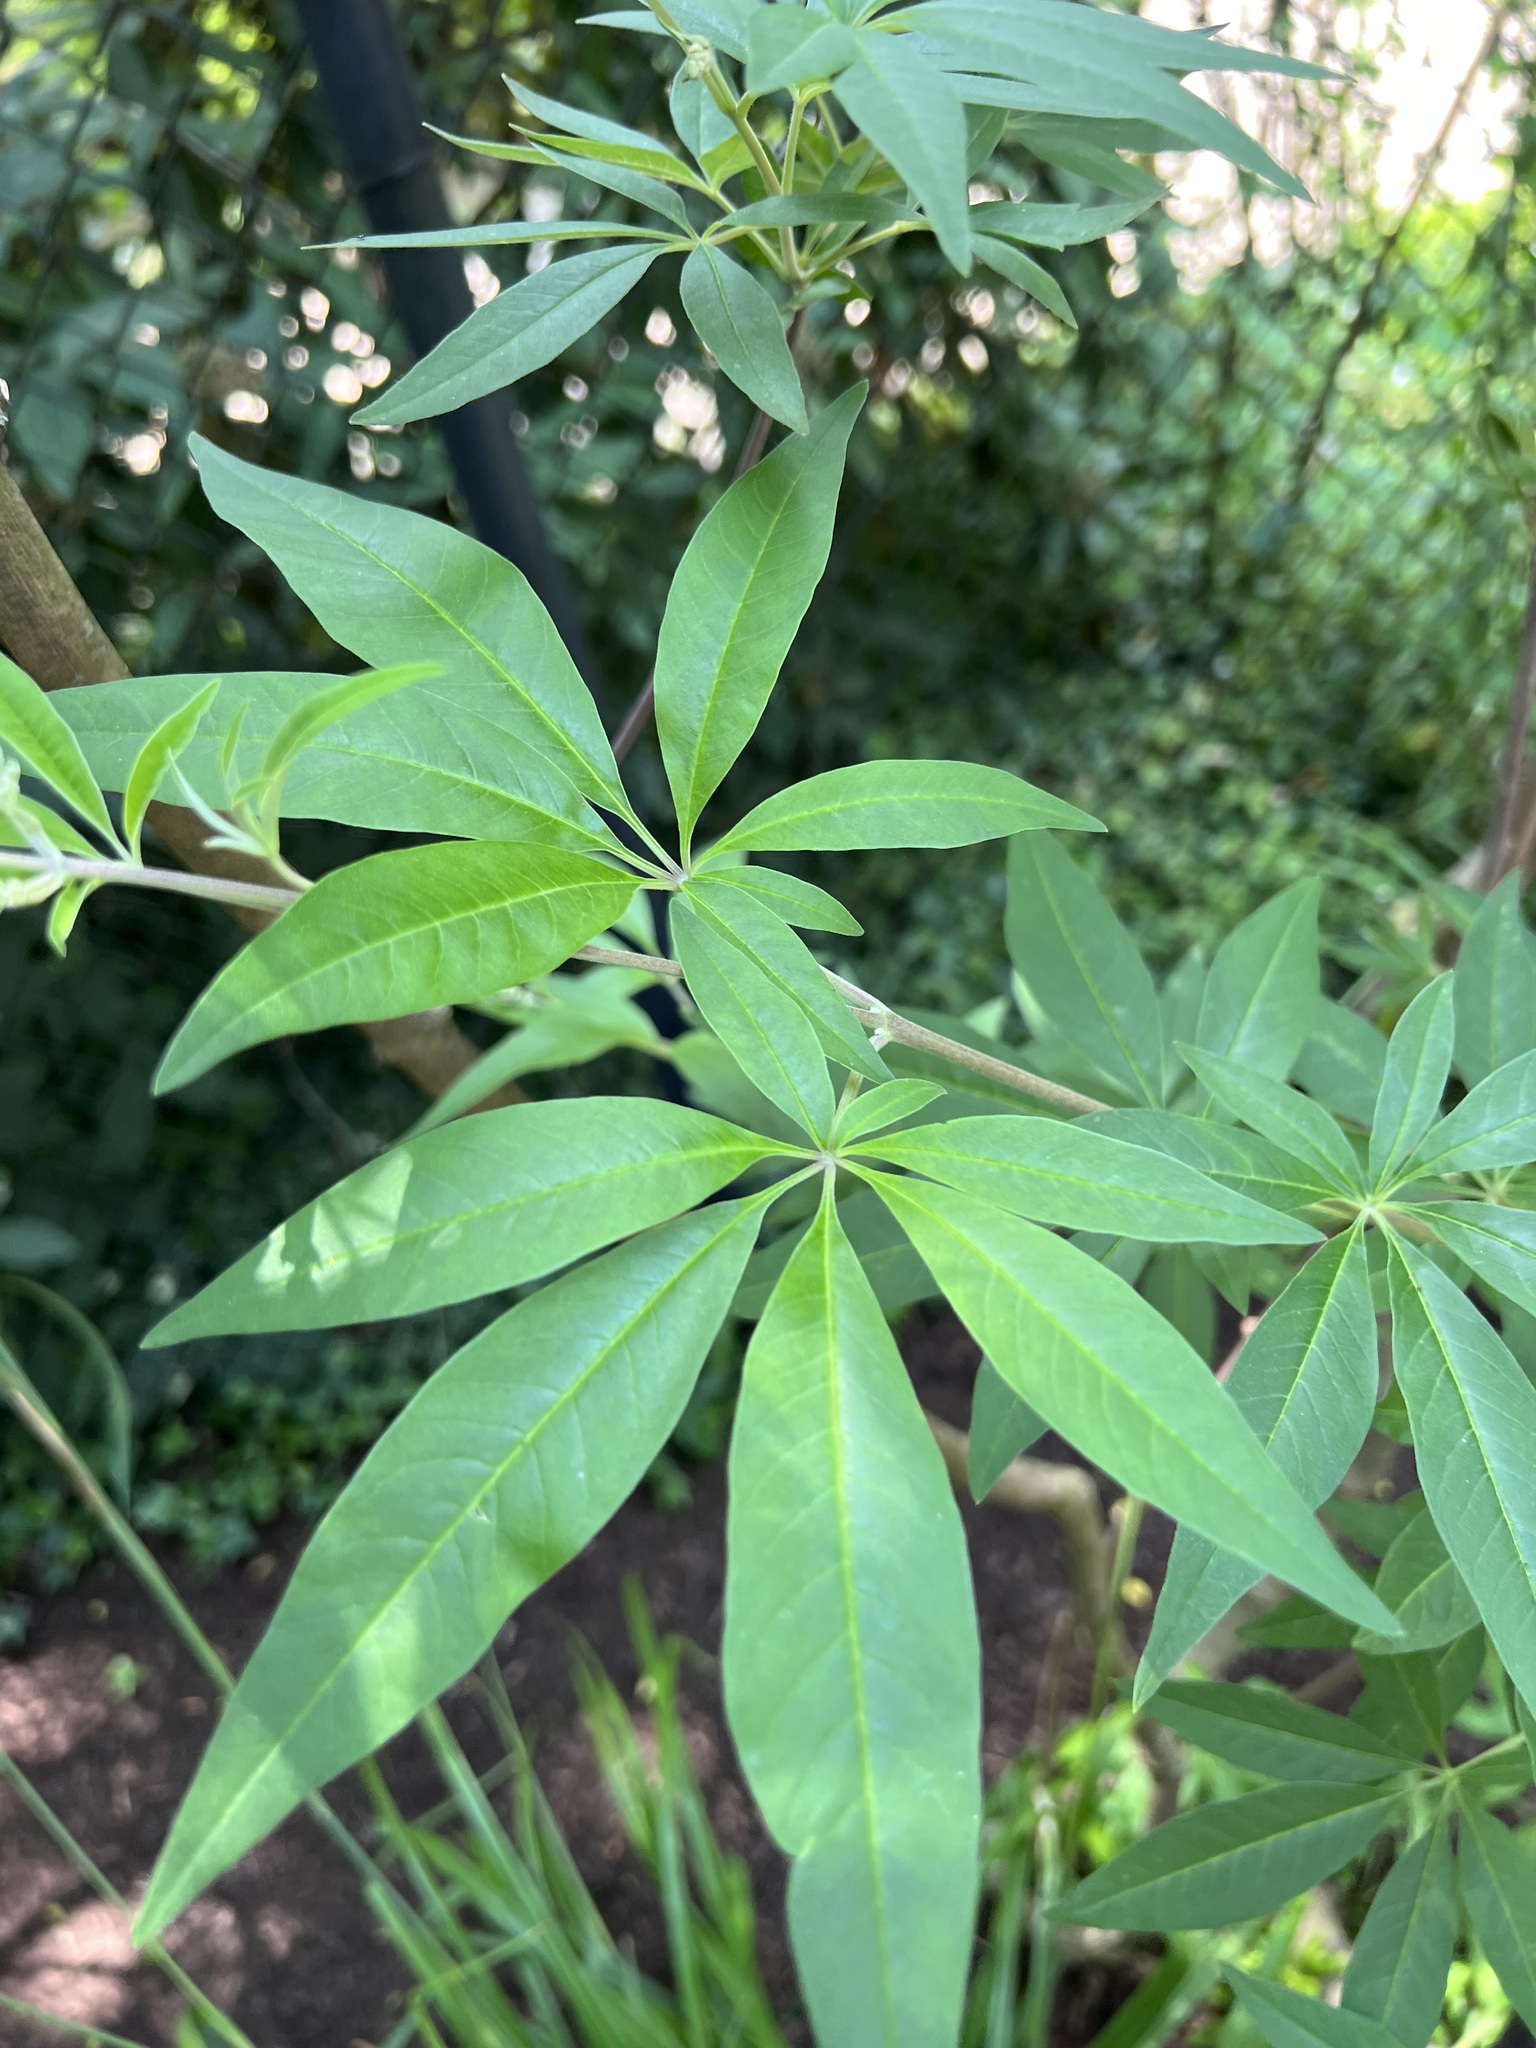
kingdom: Plantae
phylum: Tracheophyta
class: Magnoliopsida
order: Lamiales
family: Lamiaceae
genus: Vitex
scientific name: Vitex agnus-castus
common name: Chasteberry
